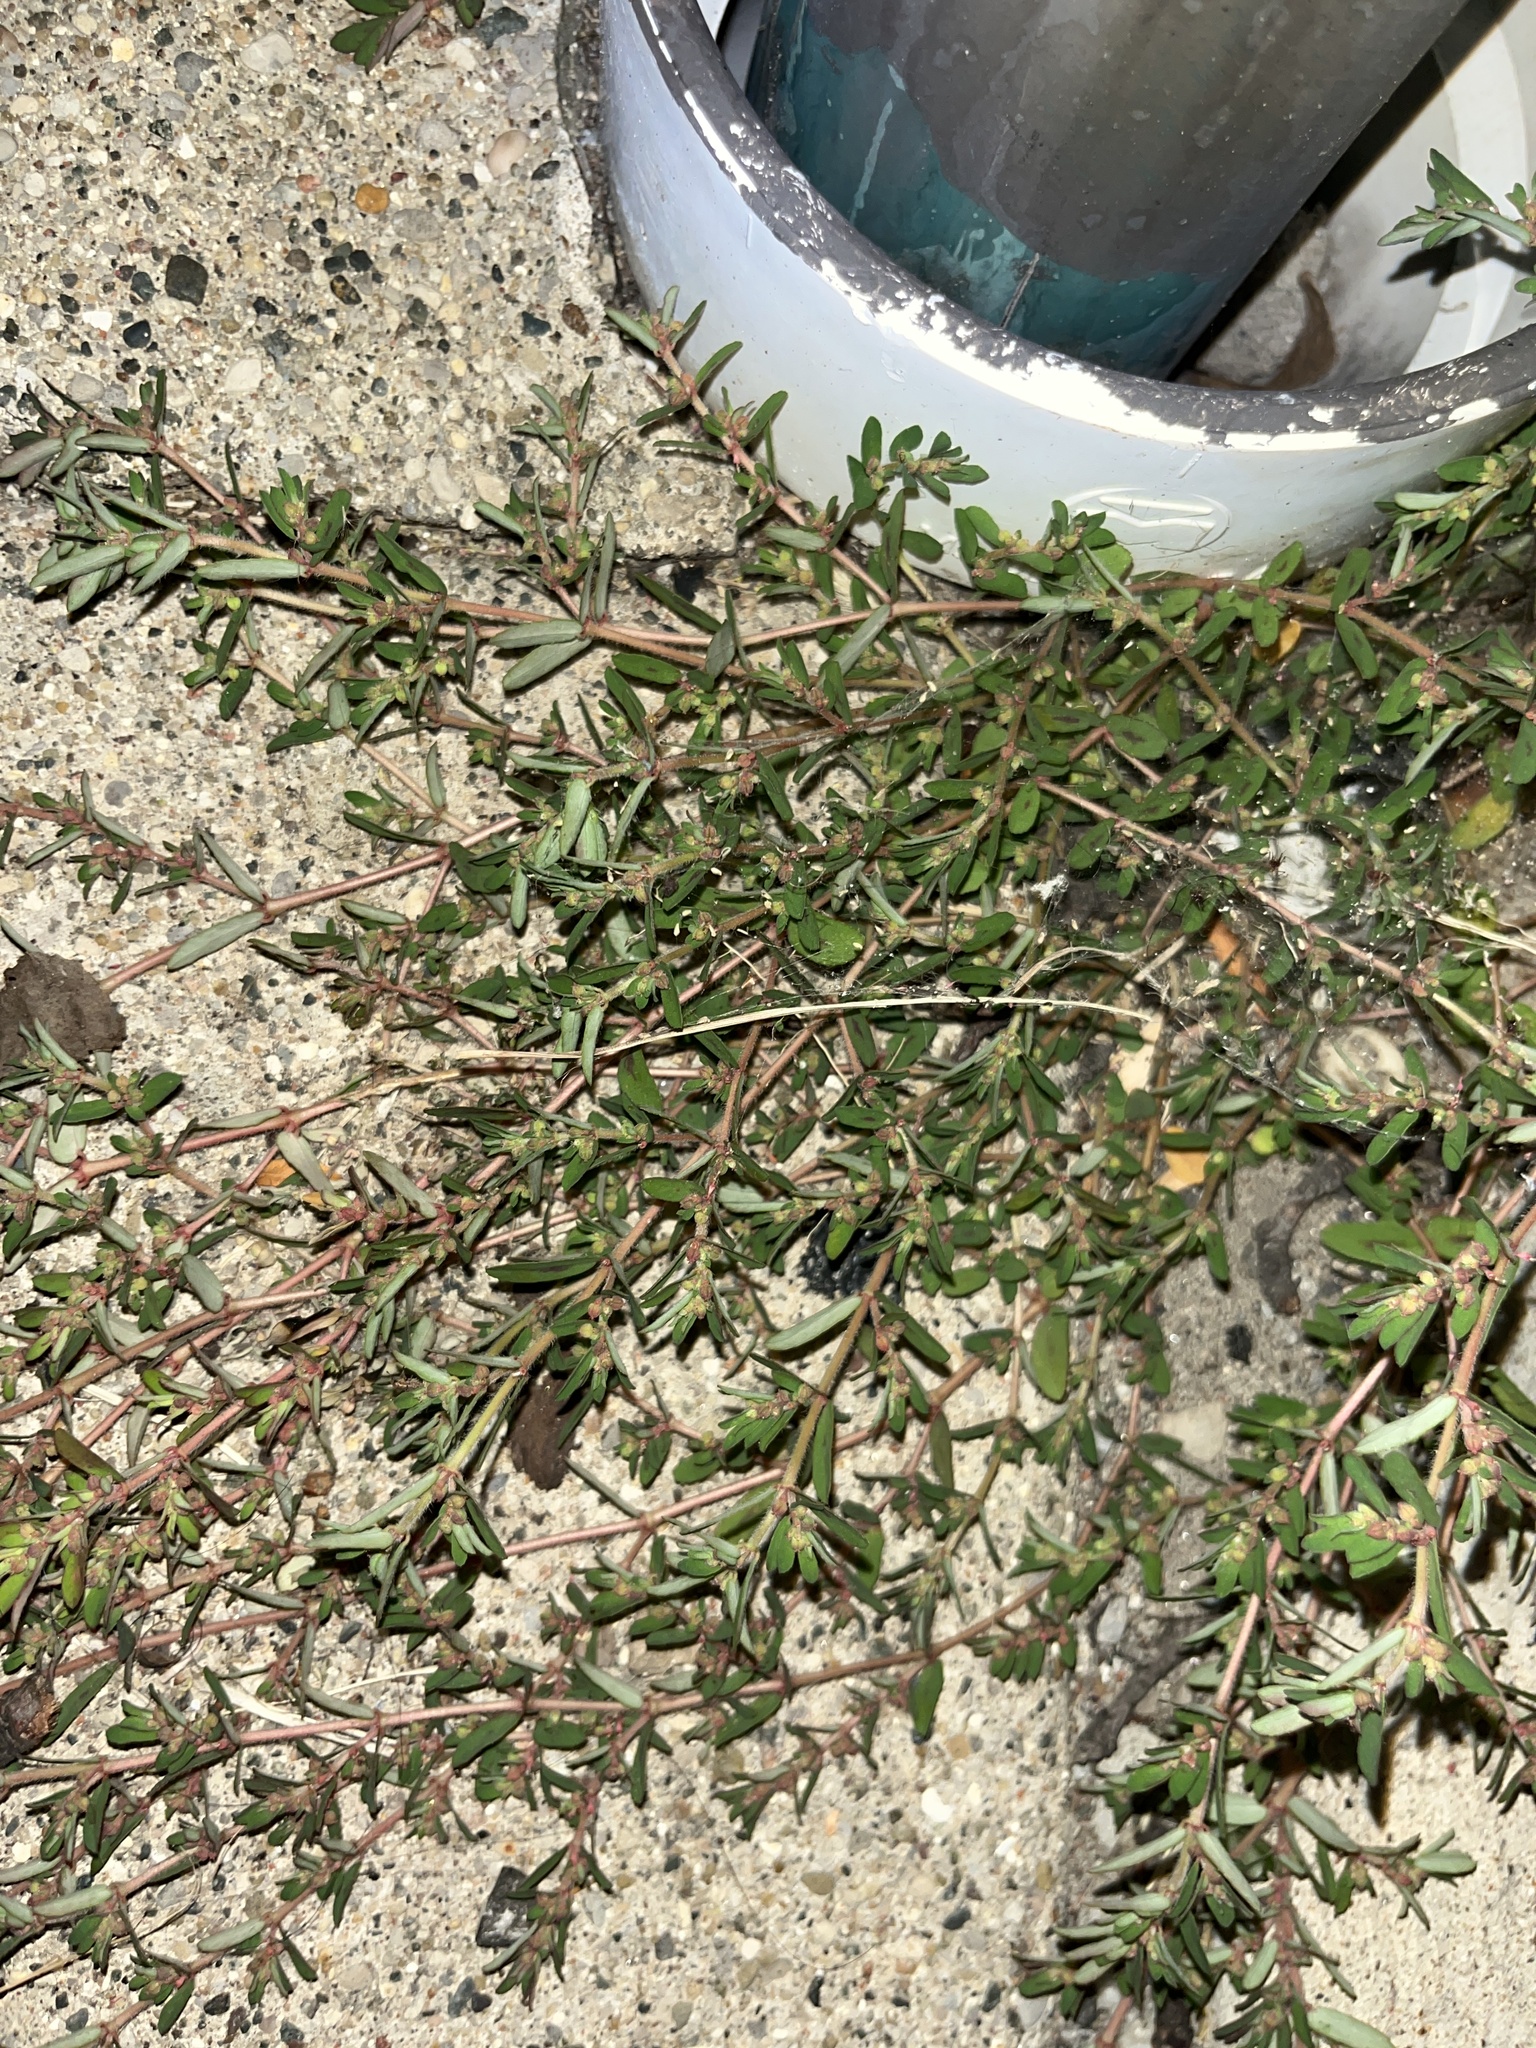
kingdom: Plantae
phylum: Tracheophyta
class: Magnoliopsida
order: Malpighiales
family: Euphorbiaceae
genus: Euphorbia
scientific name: Euphorbia maculata
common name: Spotted spurge
